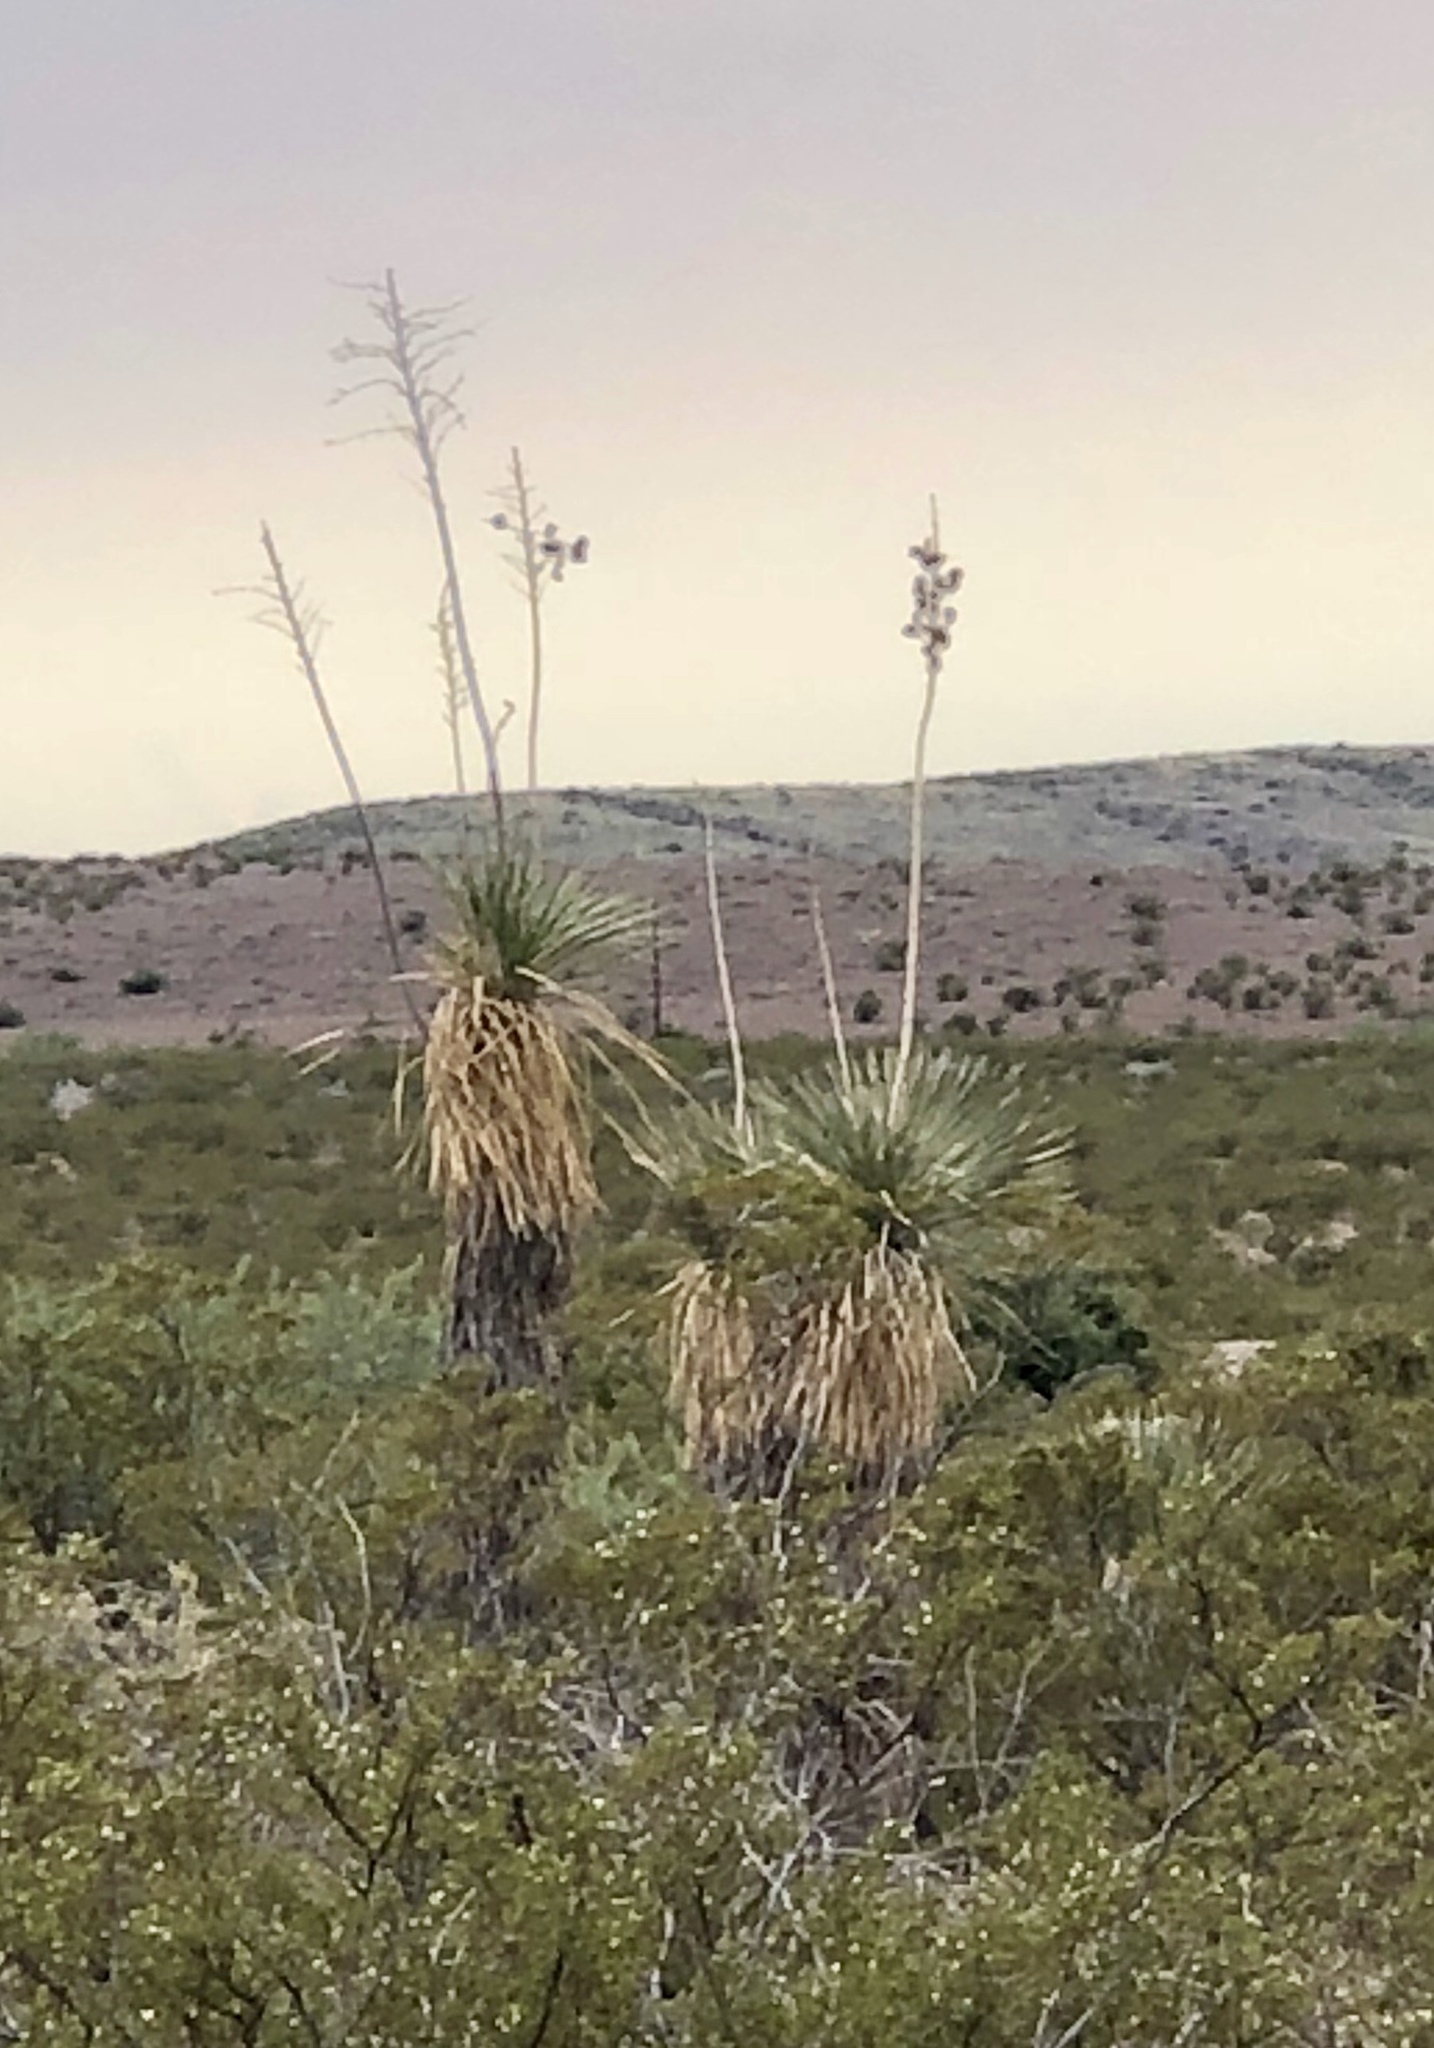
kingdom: Plantae
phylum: Tracheophyta
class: Liliopsida
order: Asparagales
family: Asparagaceae
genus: Yucca
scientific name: Yucca elata
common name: Palmella
